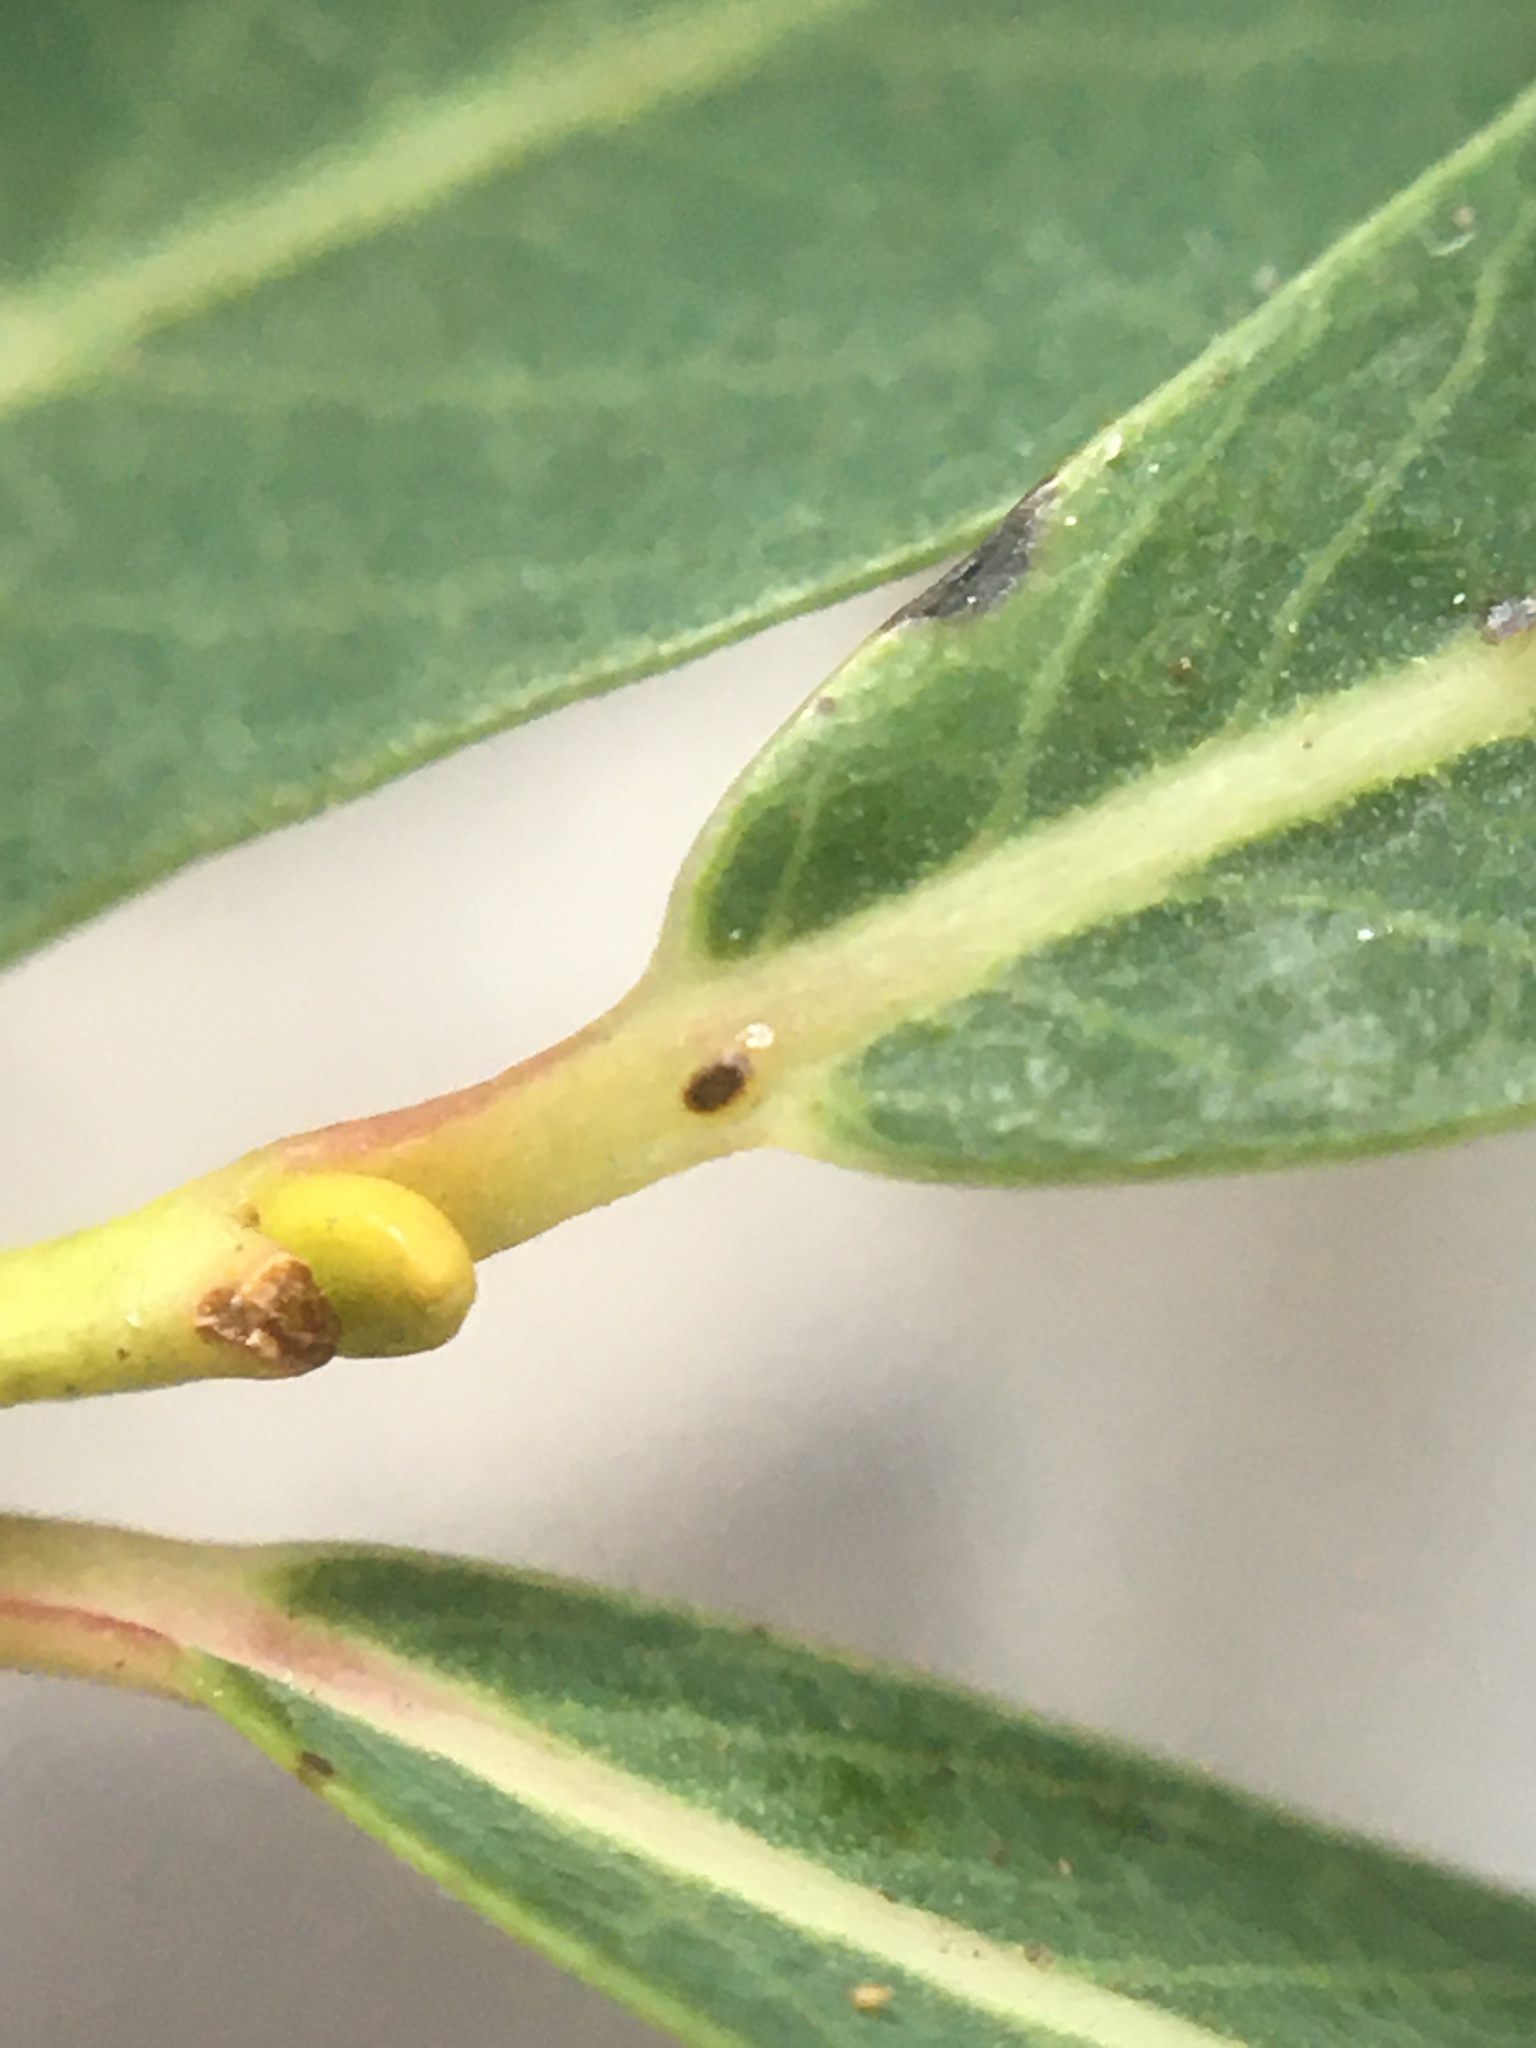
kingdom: Plantae
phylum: Tracheophyta
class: Magnoliopsida
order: Malpighiales
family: Salicaceae
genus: Salix
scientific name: Salix purpurea
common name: Purple willow
